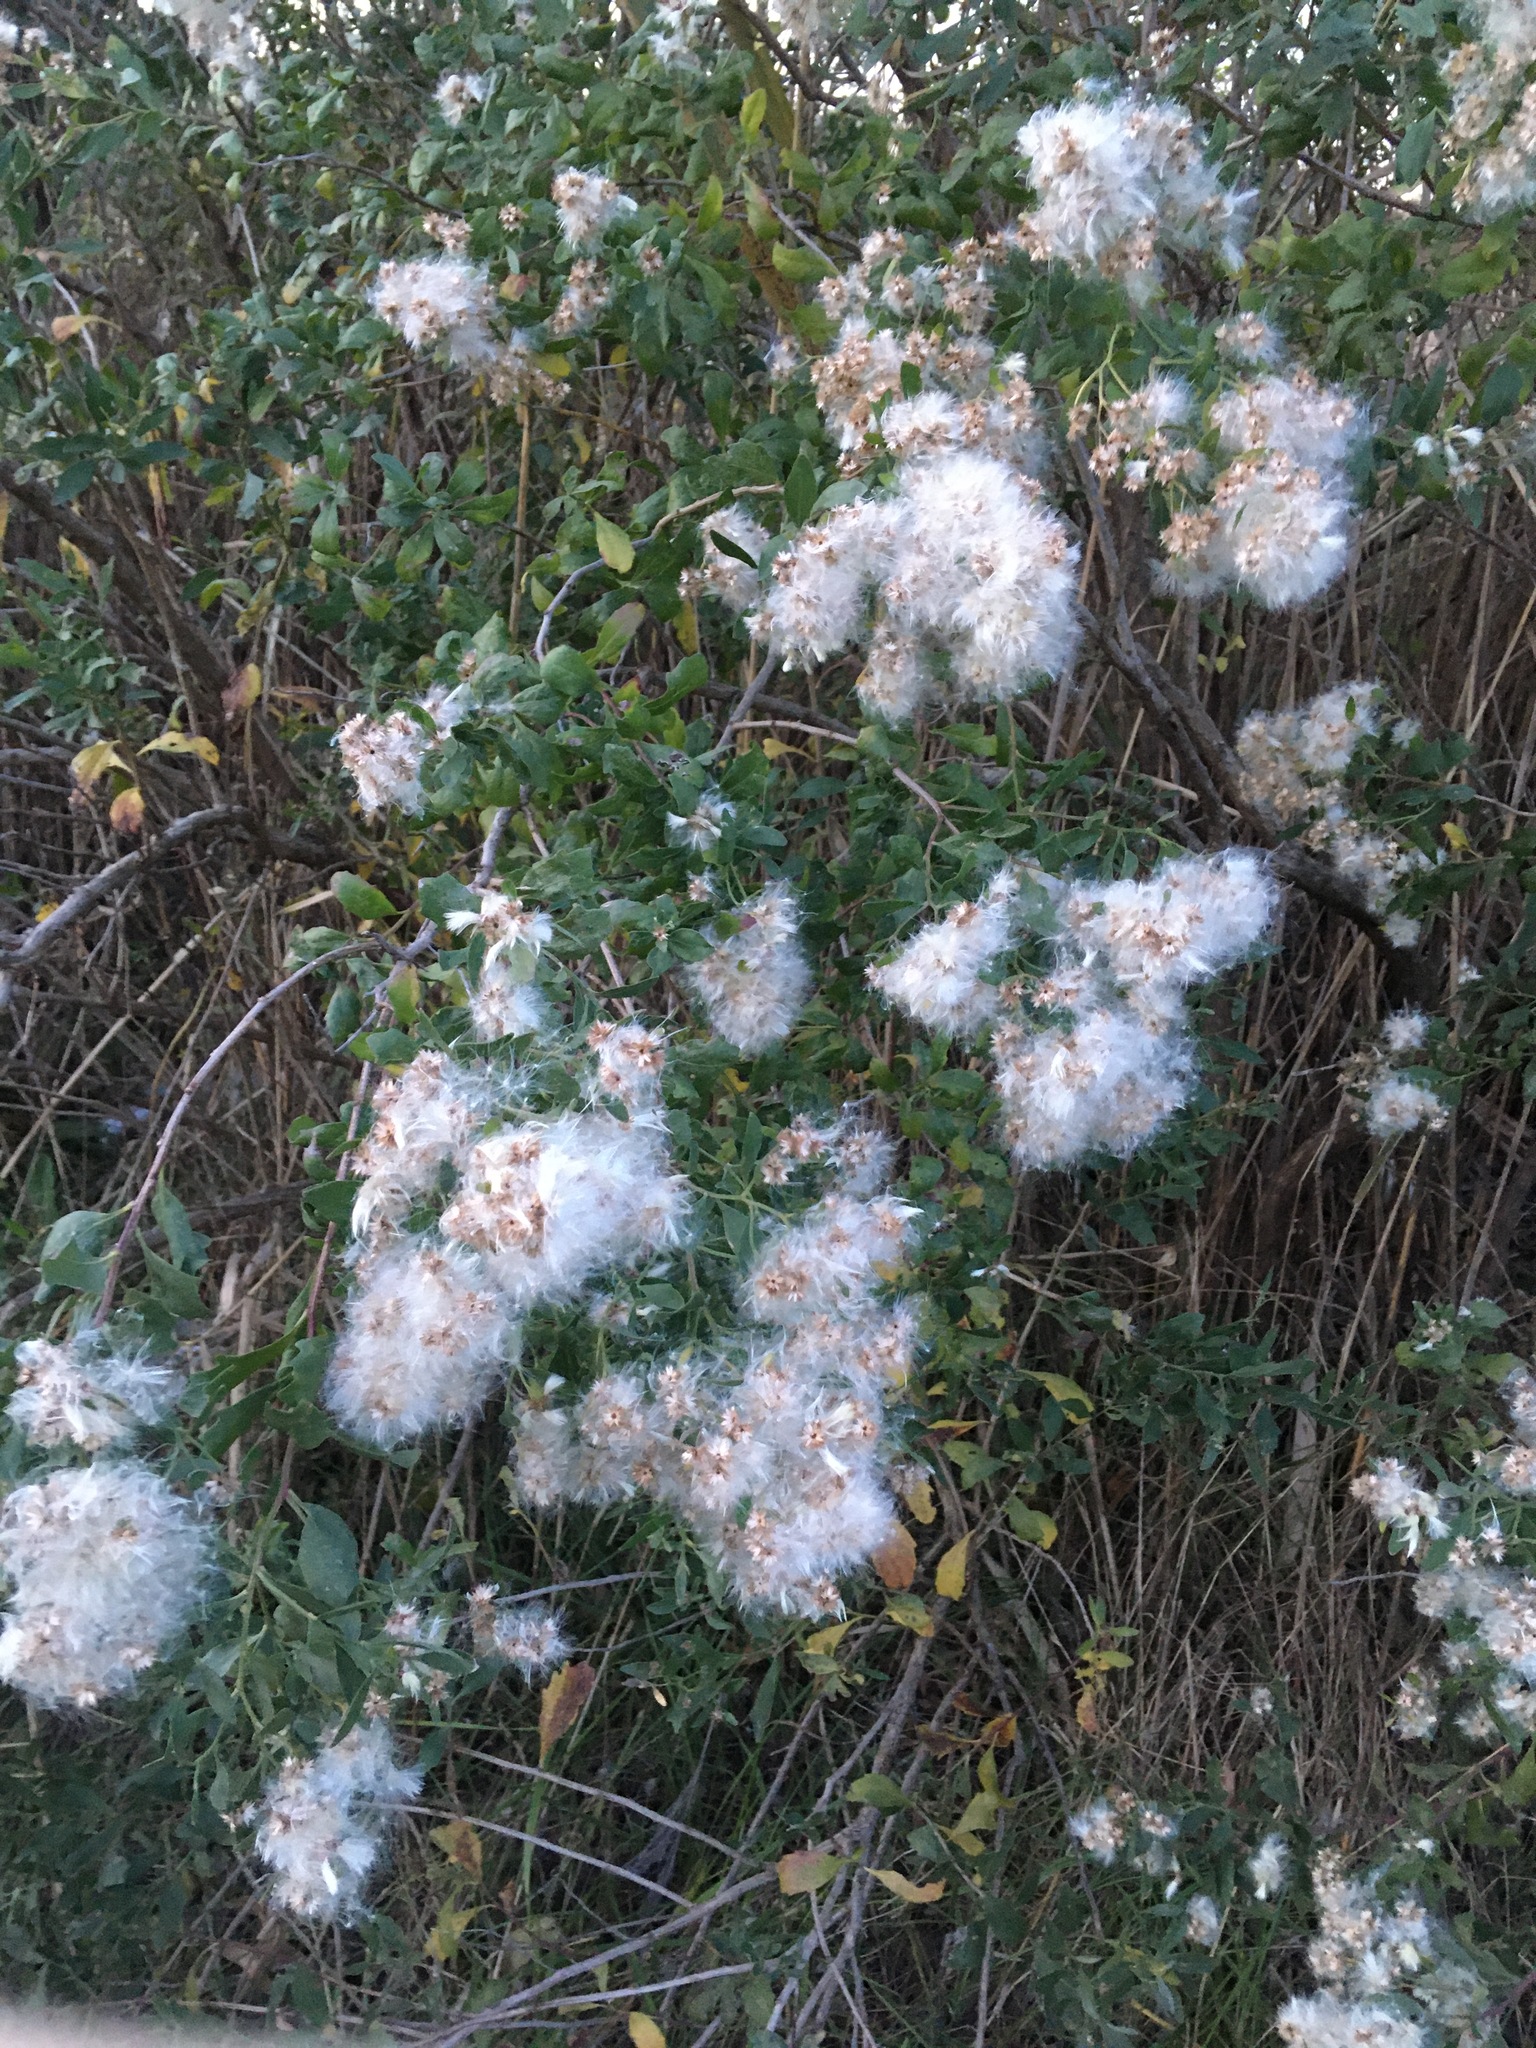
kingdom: Plantae
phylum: Tracheophyta
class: Magnoliopsida
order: Asterales
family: Asteraceae
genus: Baccharis
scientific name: Baccharis halimifolia
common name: Eastern baccharis
